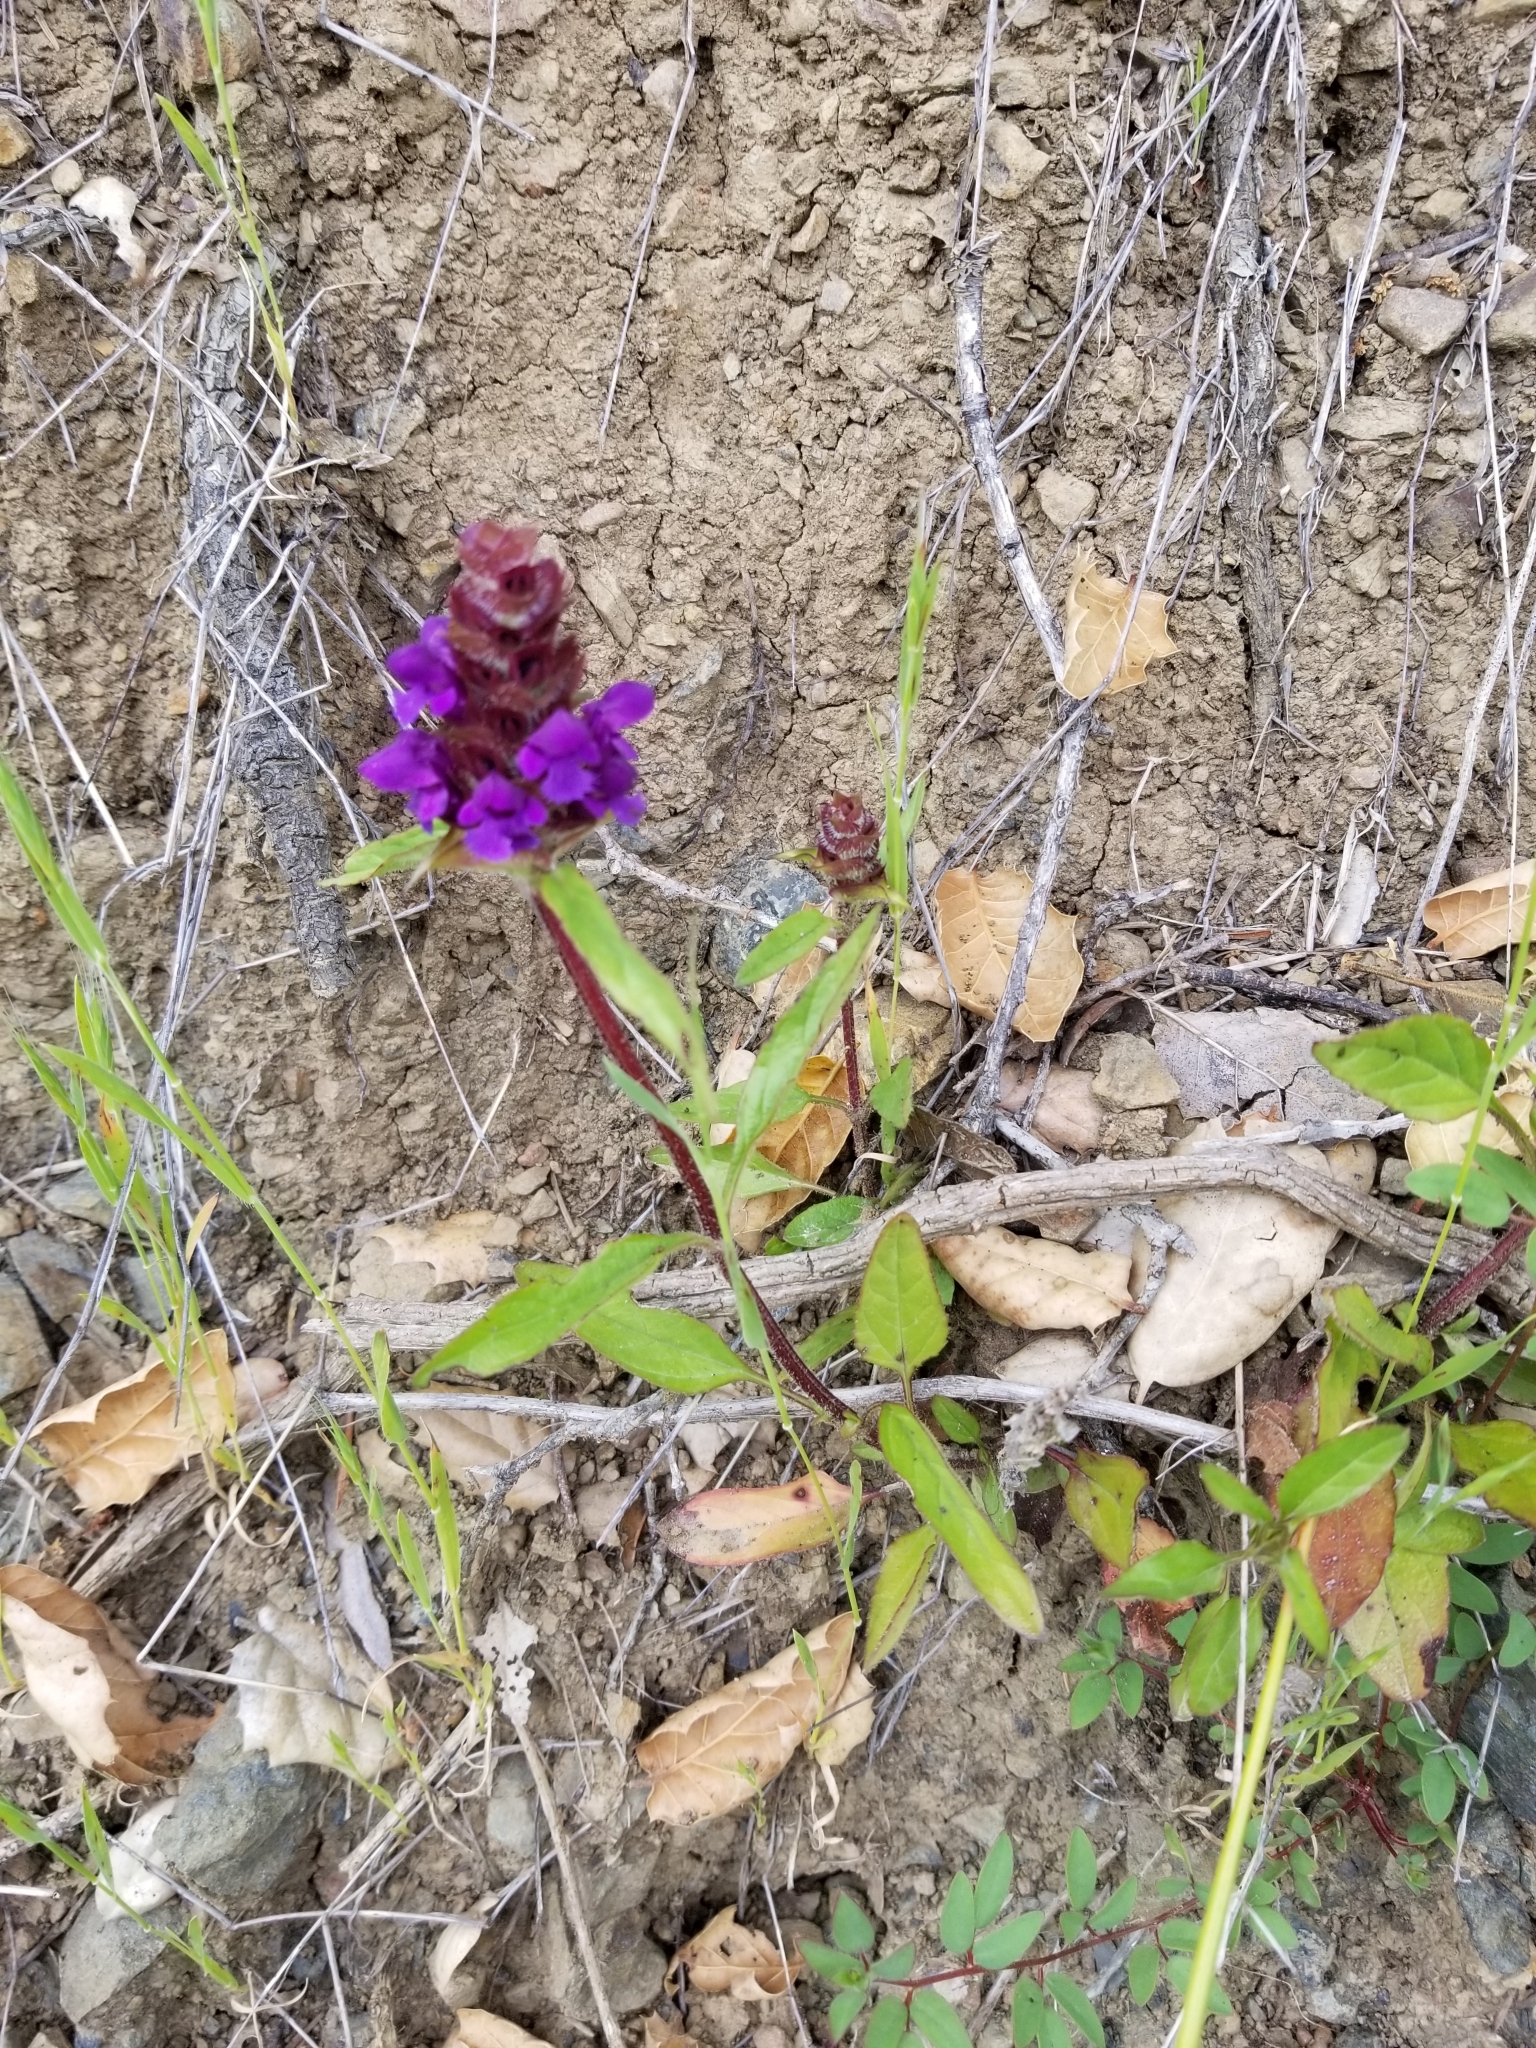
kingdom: Plantae
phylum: Tracheophyta
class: Magnoliopsida
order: Lamiales
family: Lamiaceae
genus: Prunella
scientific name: Prunella vulgaris
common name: Heal-all
